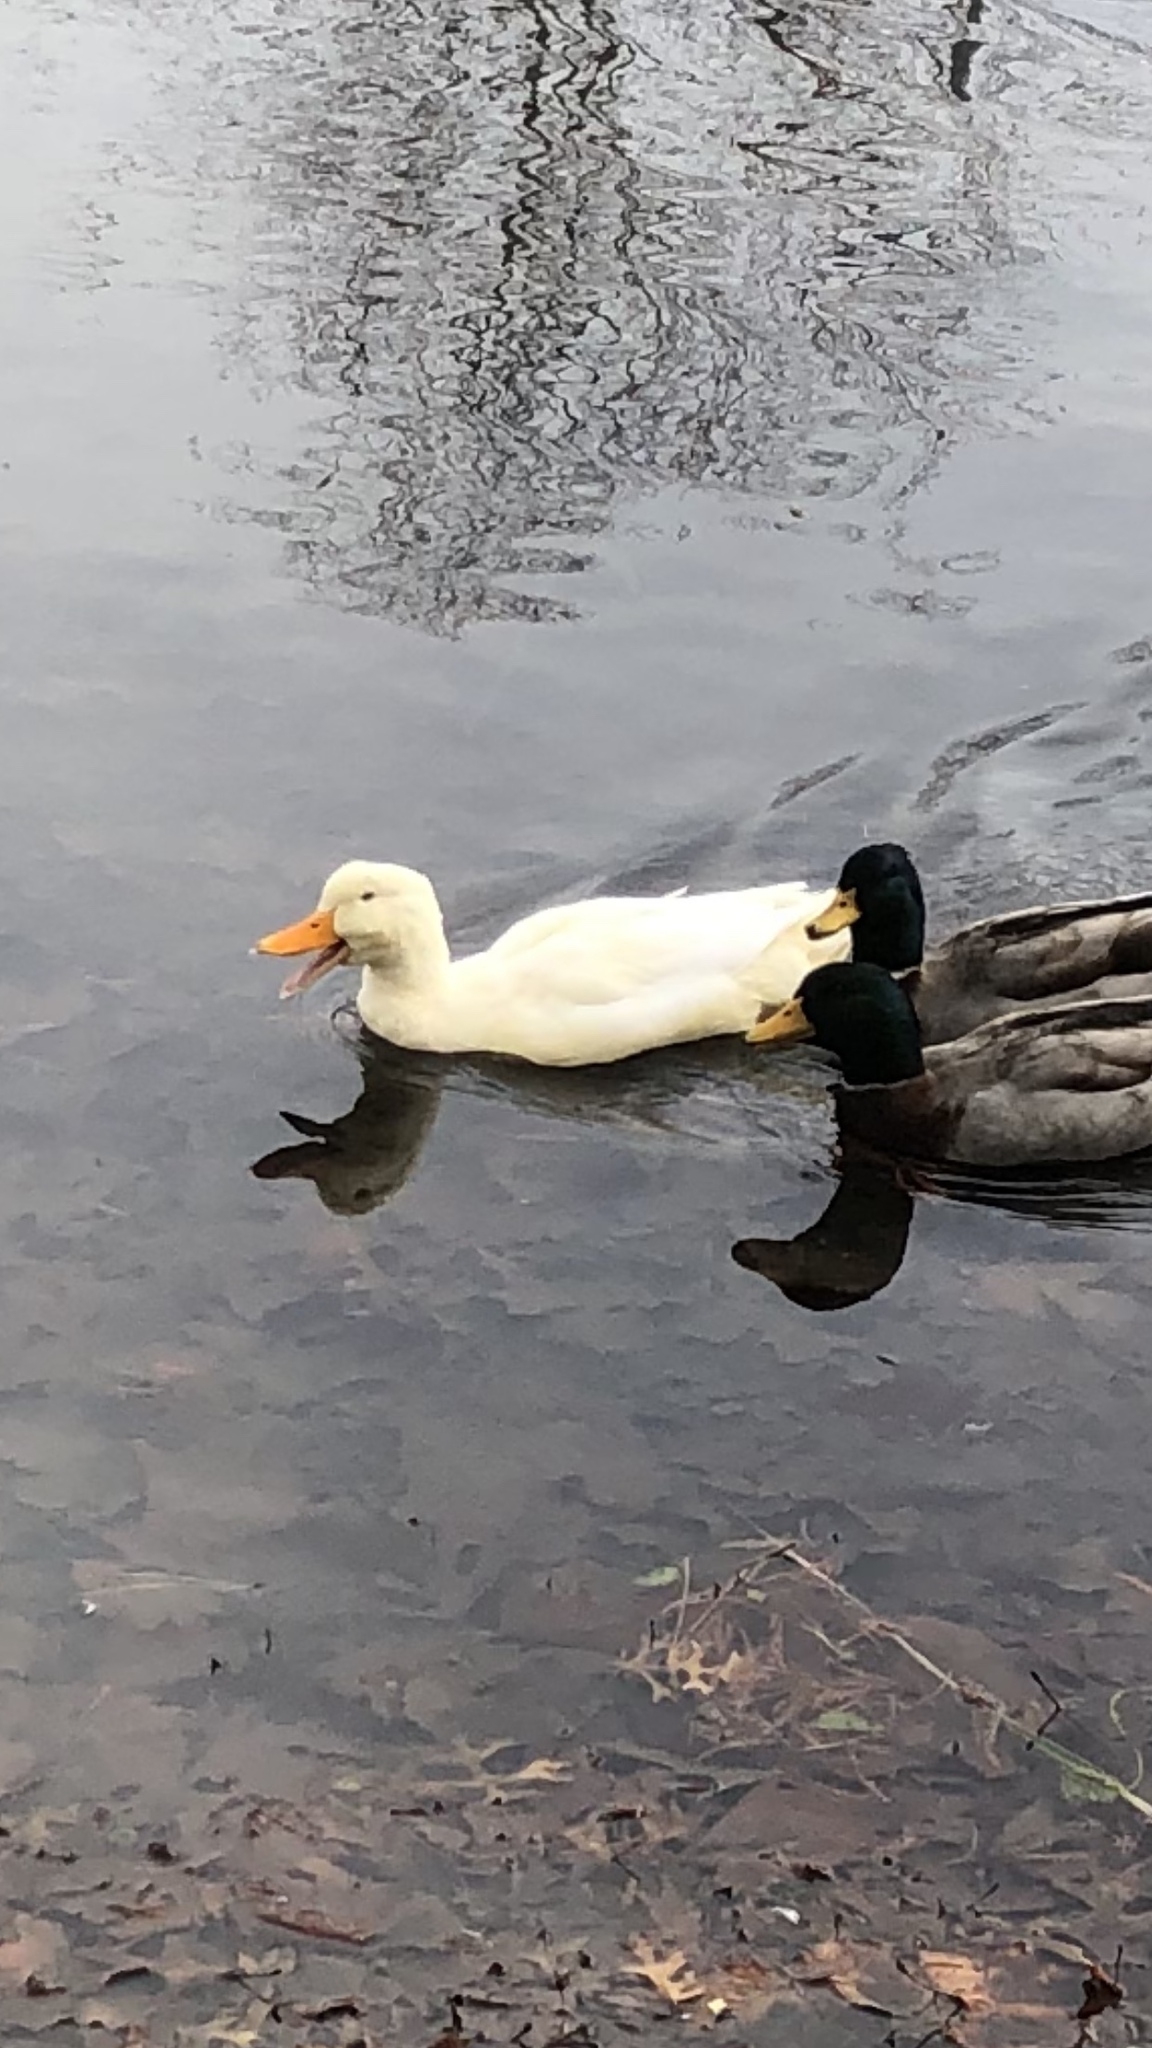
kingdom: Animalia
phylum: Chordata
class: Aves
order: Anseriformes
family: Anatidae
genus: Anas
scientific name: Anas platyrhynchos
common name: Mallard
